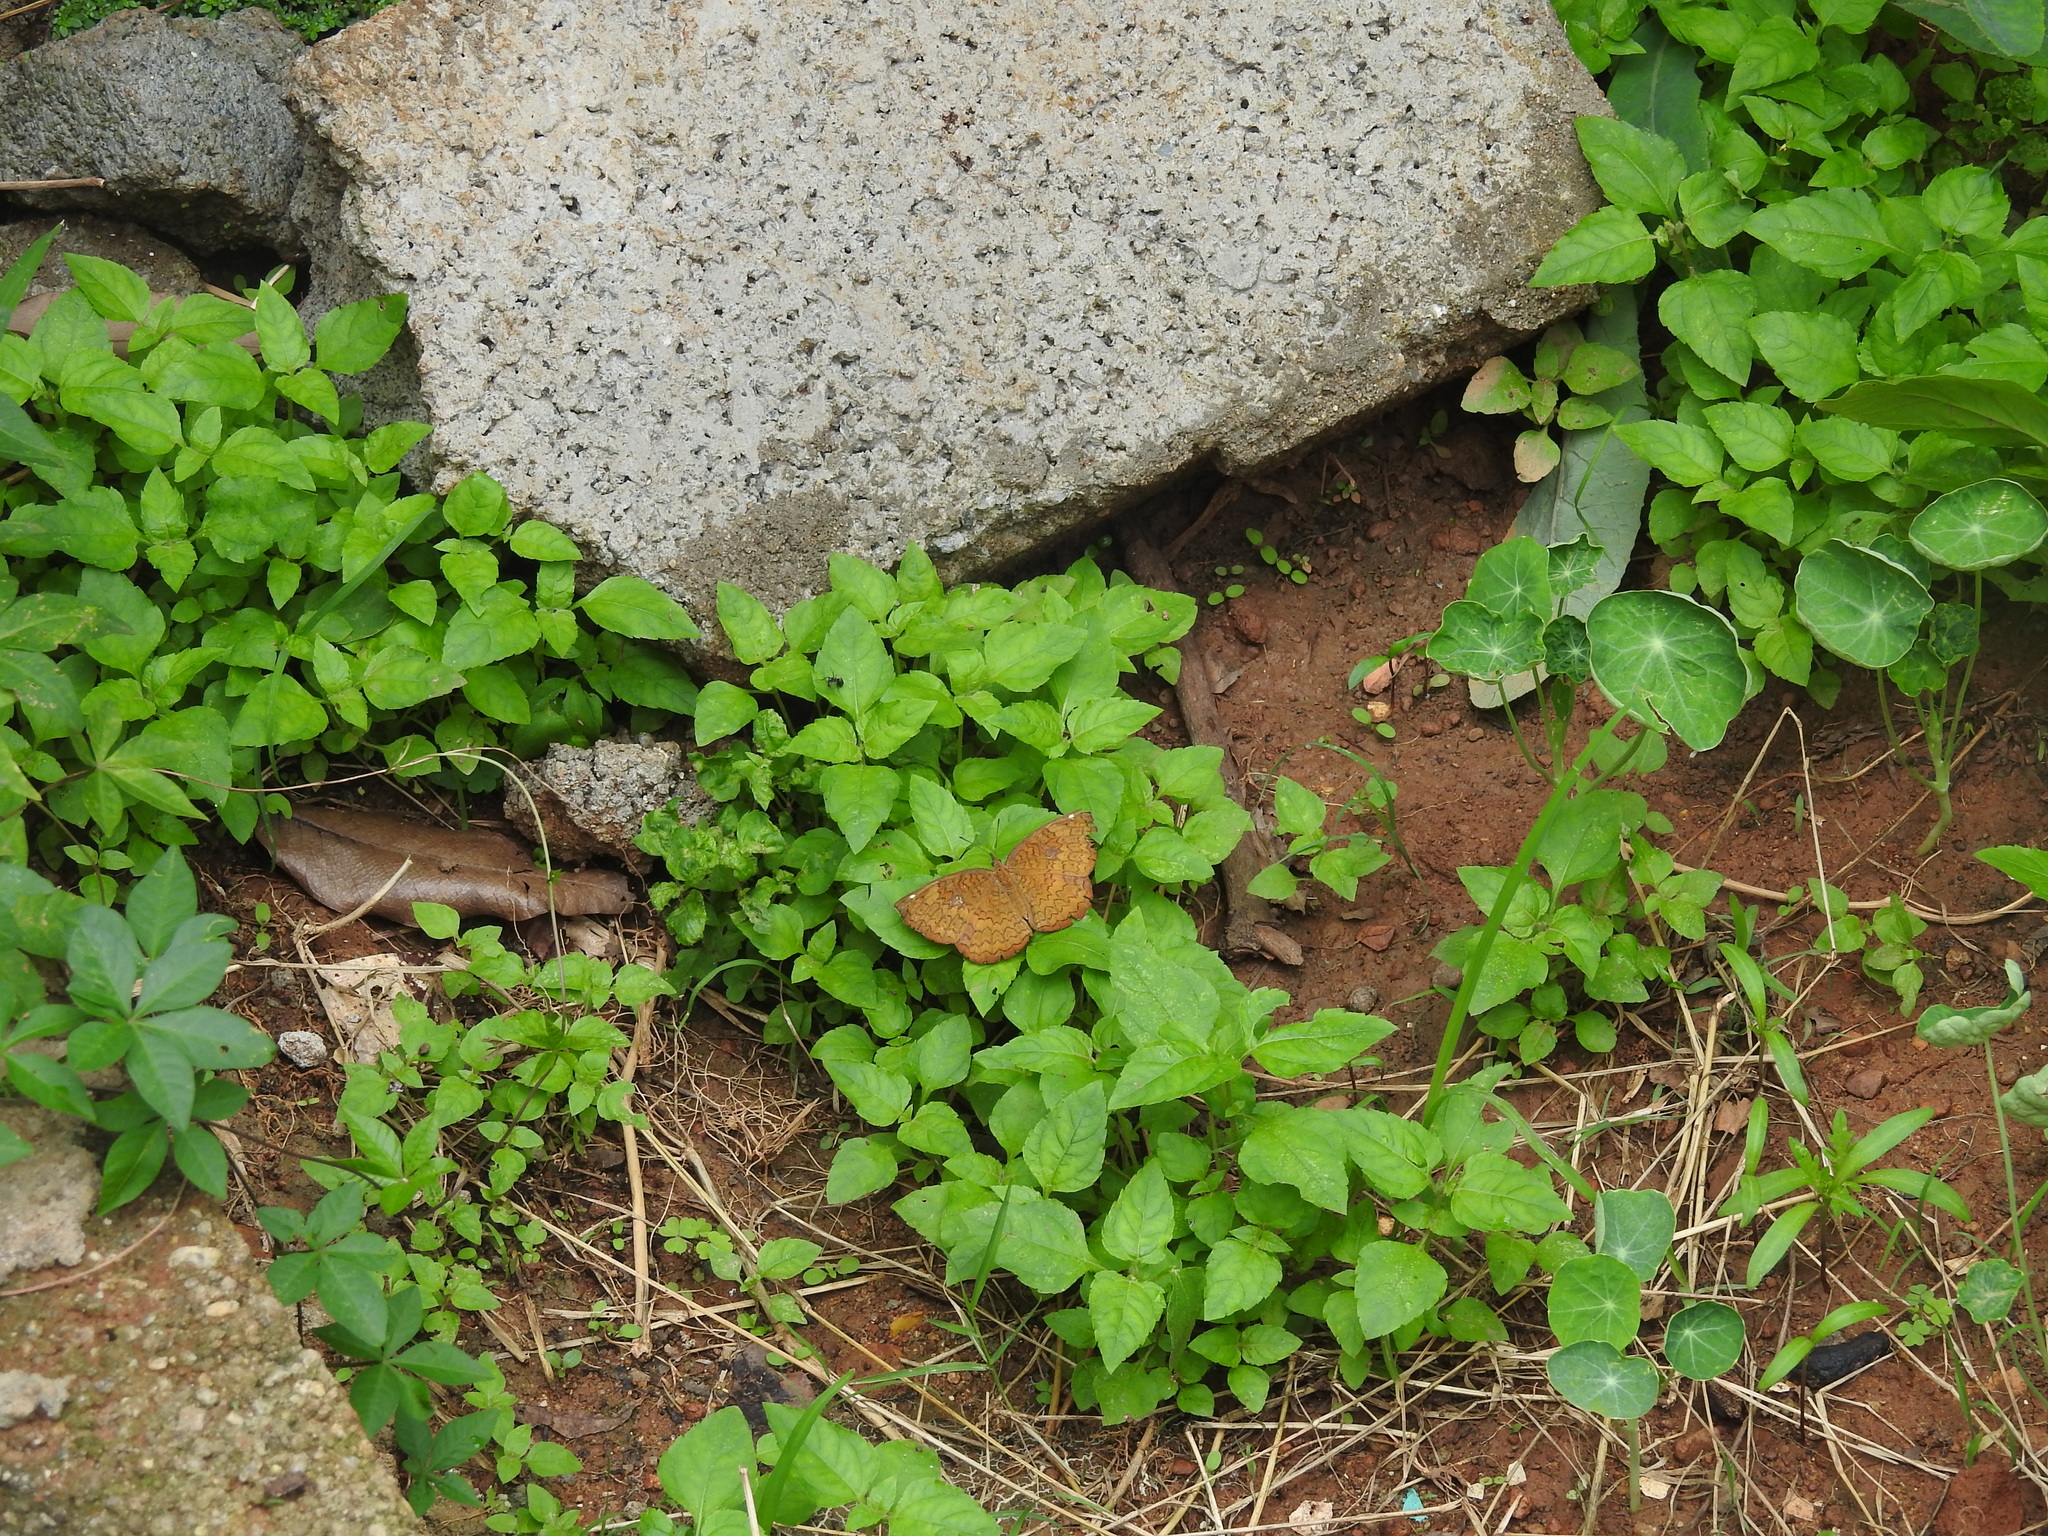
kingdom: Animalia
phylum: Arthropoda
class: Insecta
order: Lepidoptera
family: Nymphalidae
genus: Ariadne
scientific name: Ariadne merione
